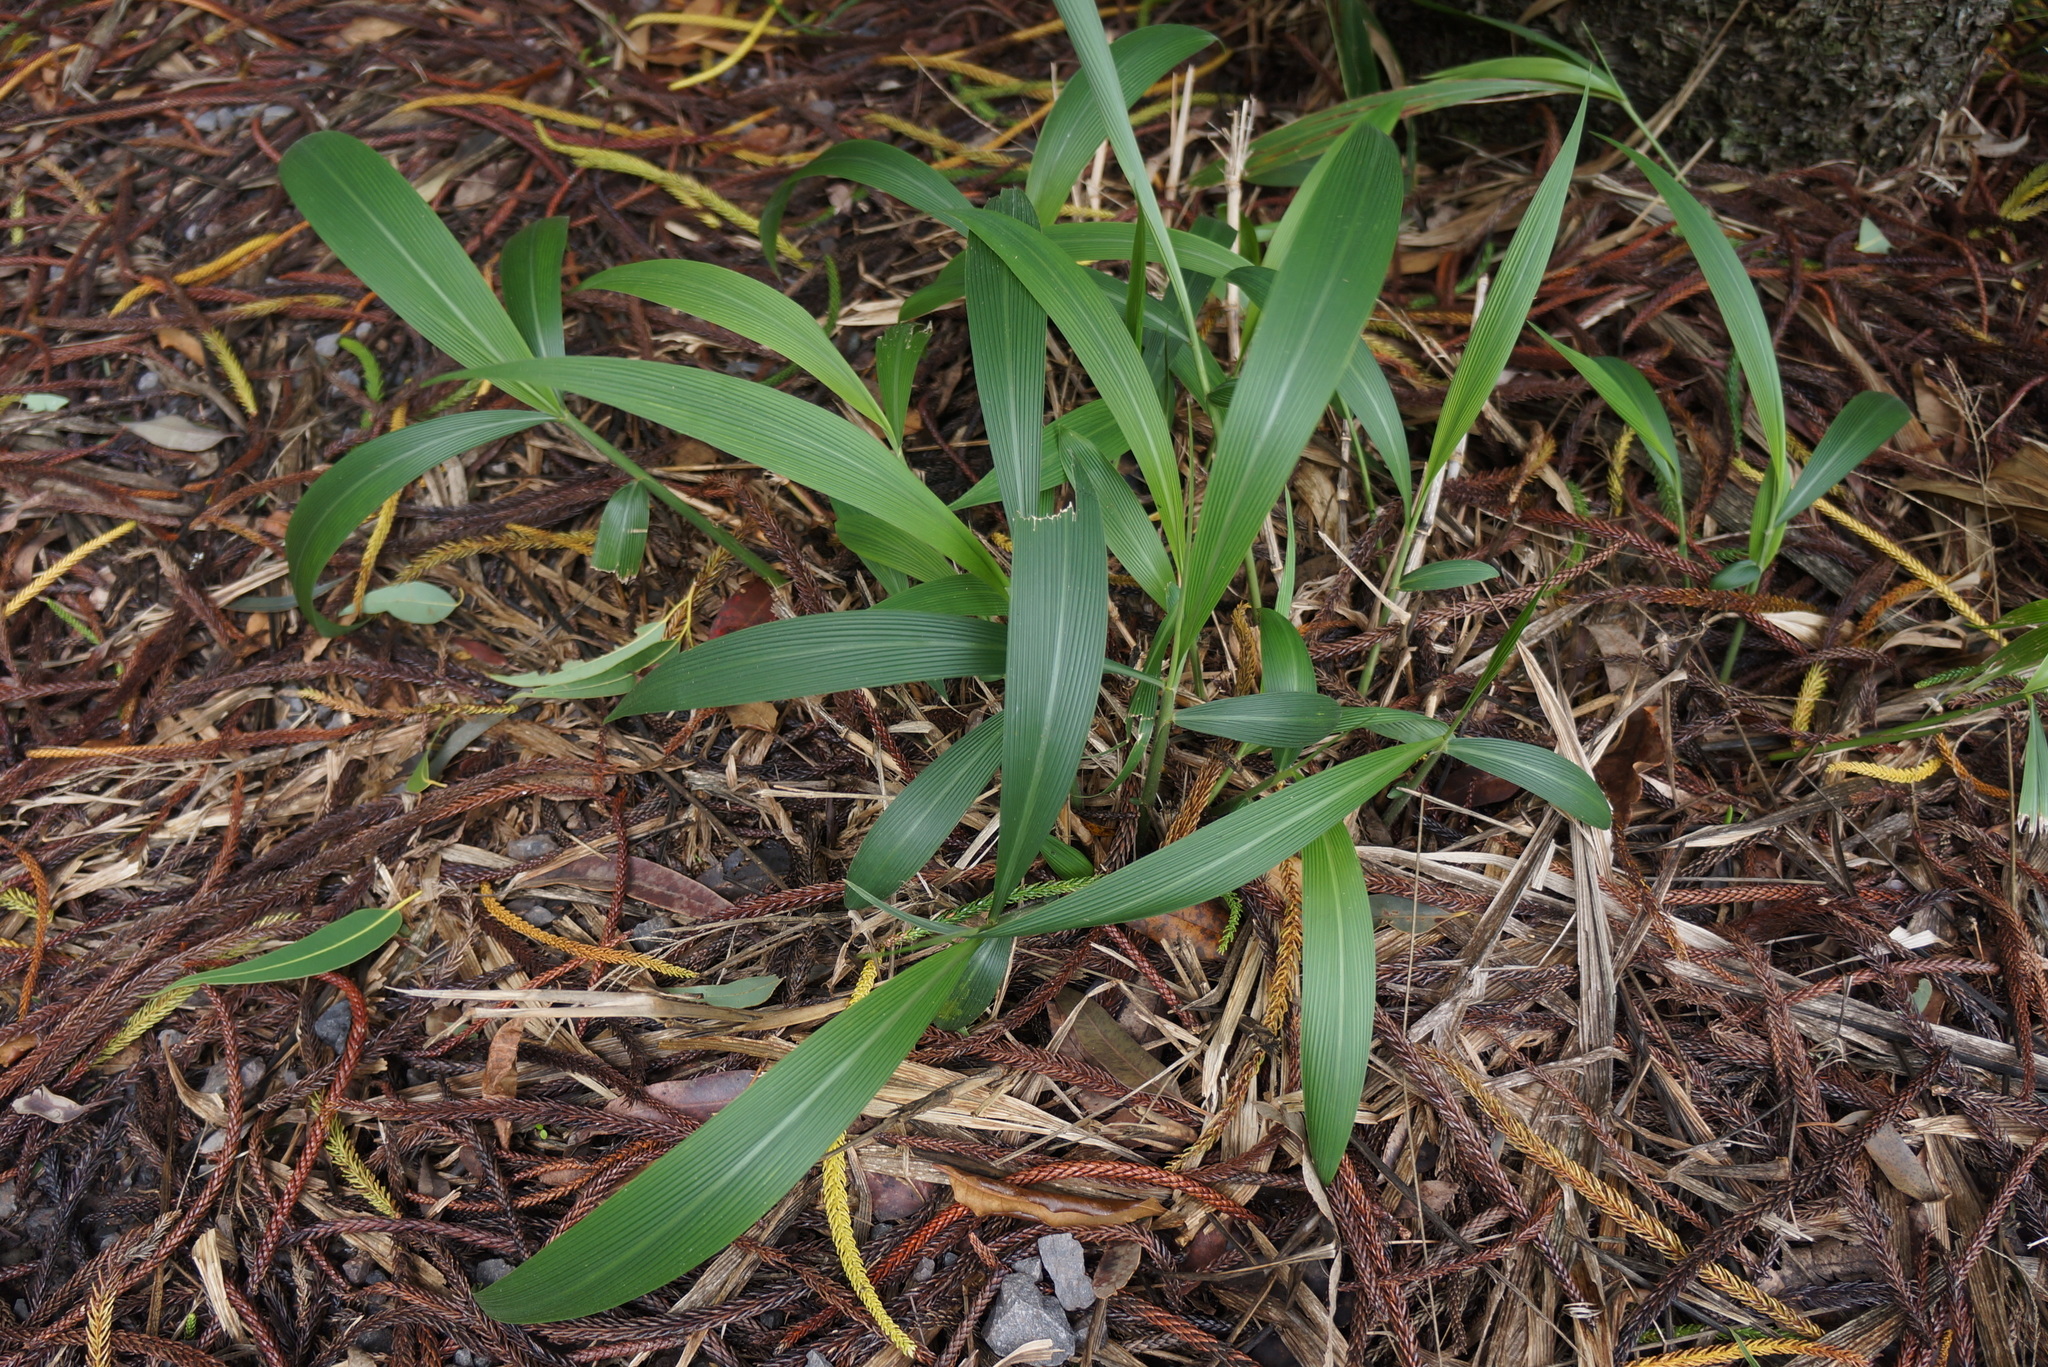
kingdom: Plantae
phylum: Tracheophyta
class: Liliopsida
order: Poales
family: Poaceae
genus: Setaria
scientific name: Setaria palmifolia
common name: Broadleaved bristlegrass
